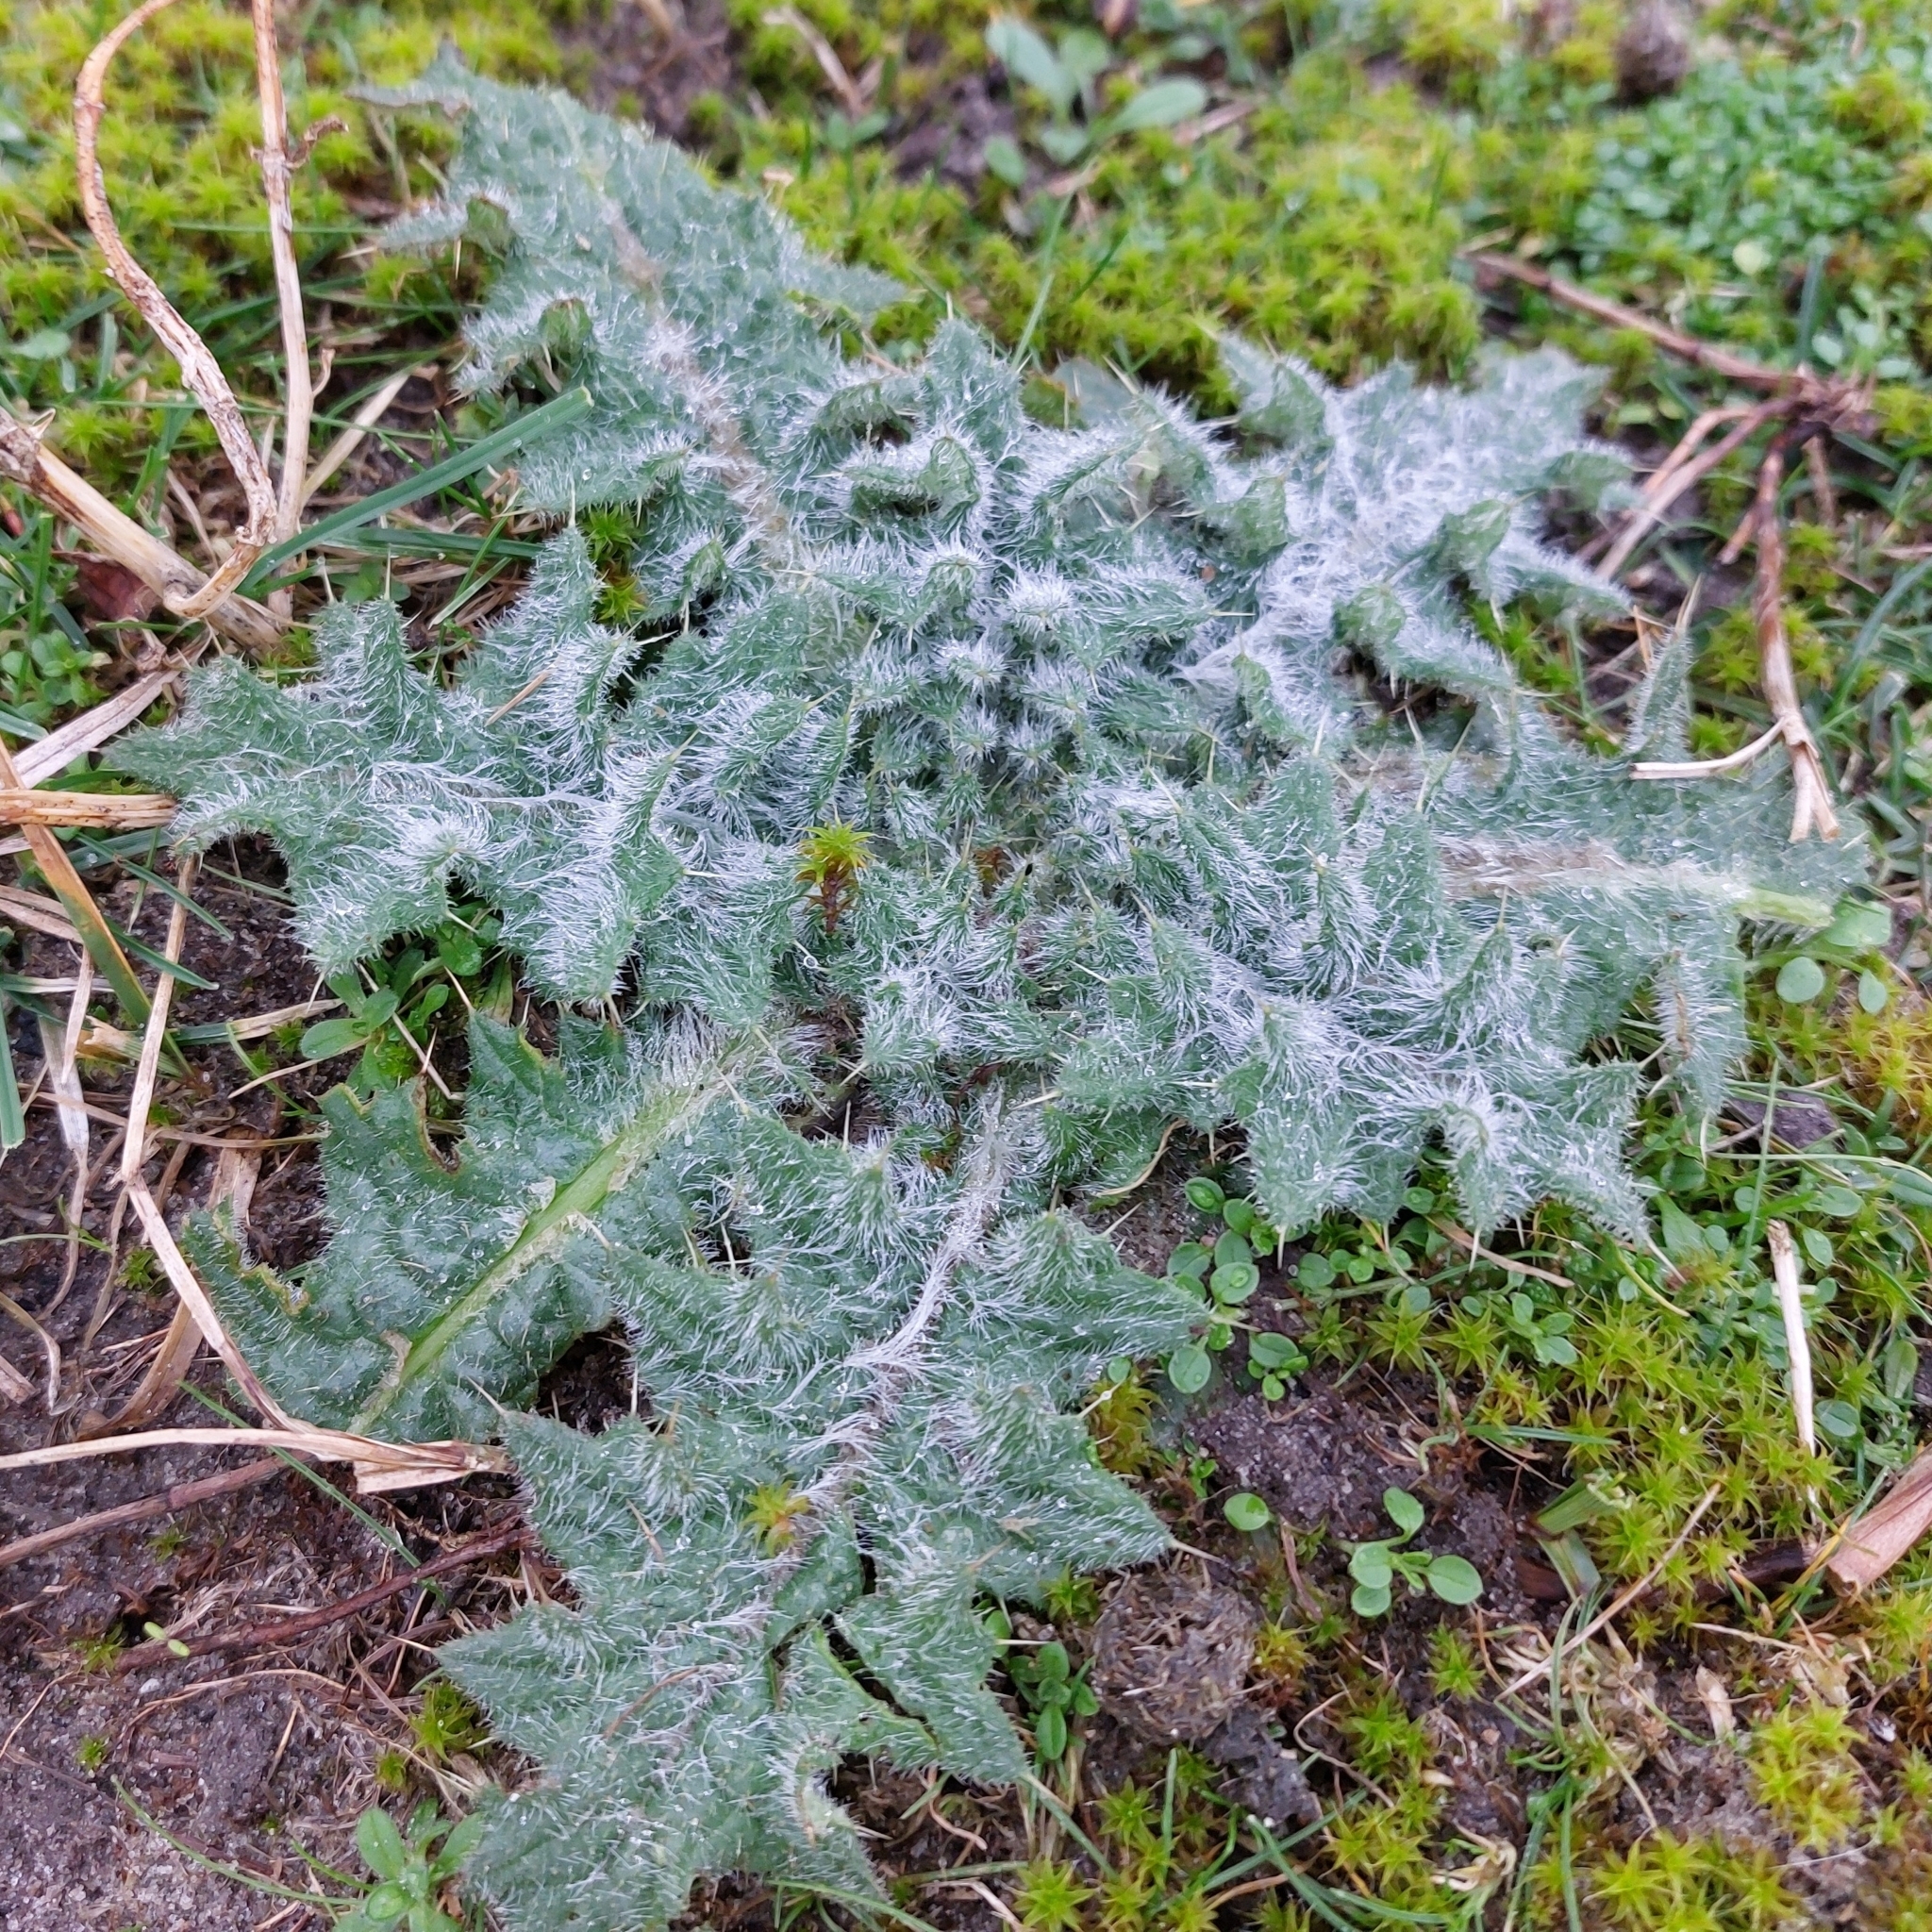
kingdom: Plantae
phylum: Tracheophyta
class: Magnoliopsida
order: Asterales
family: Asteraceae
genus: Cirsium
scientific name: Cirsium vulgare
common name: Bull thistle
